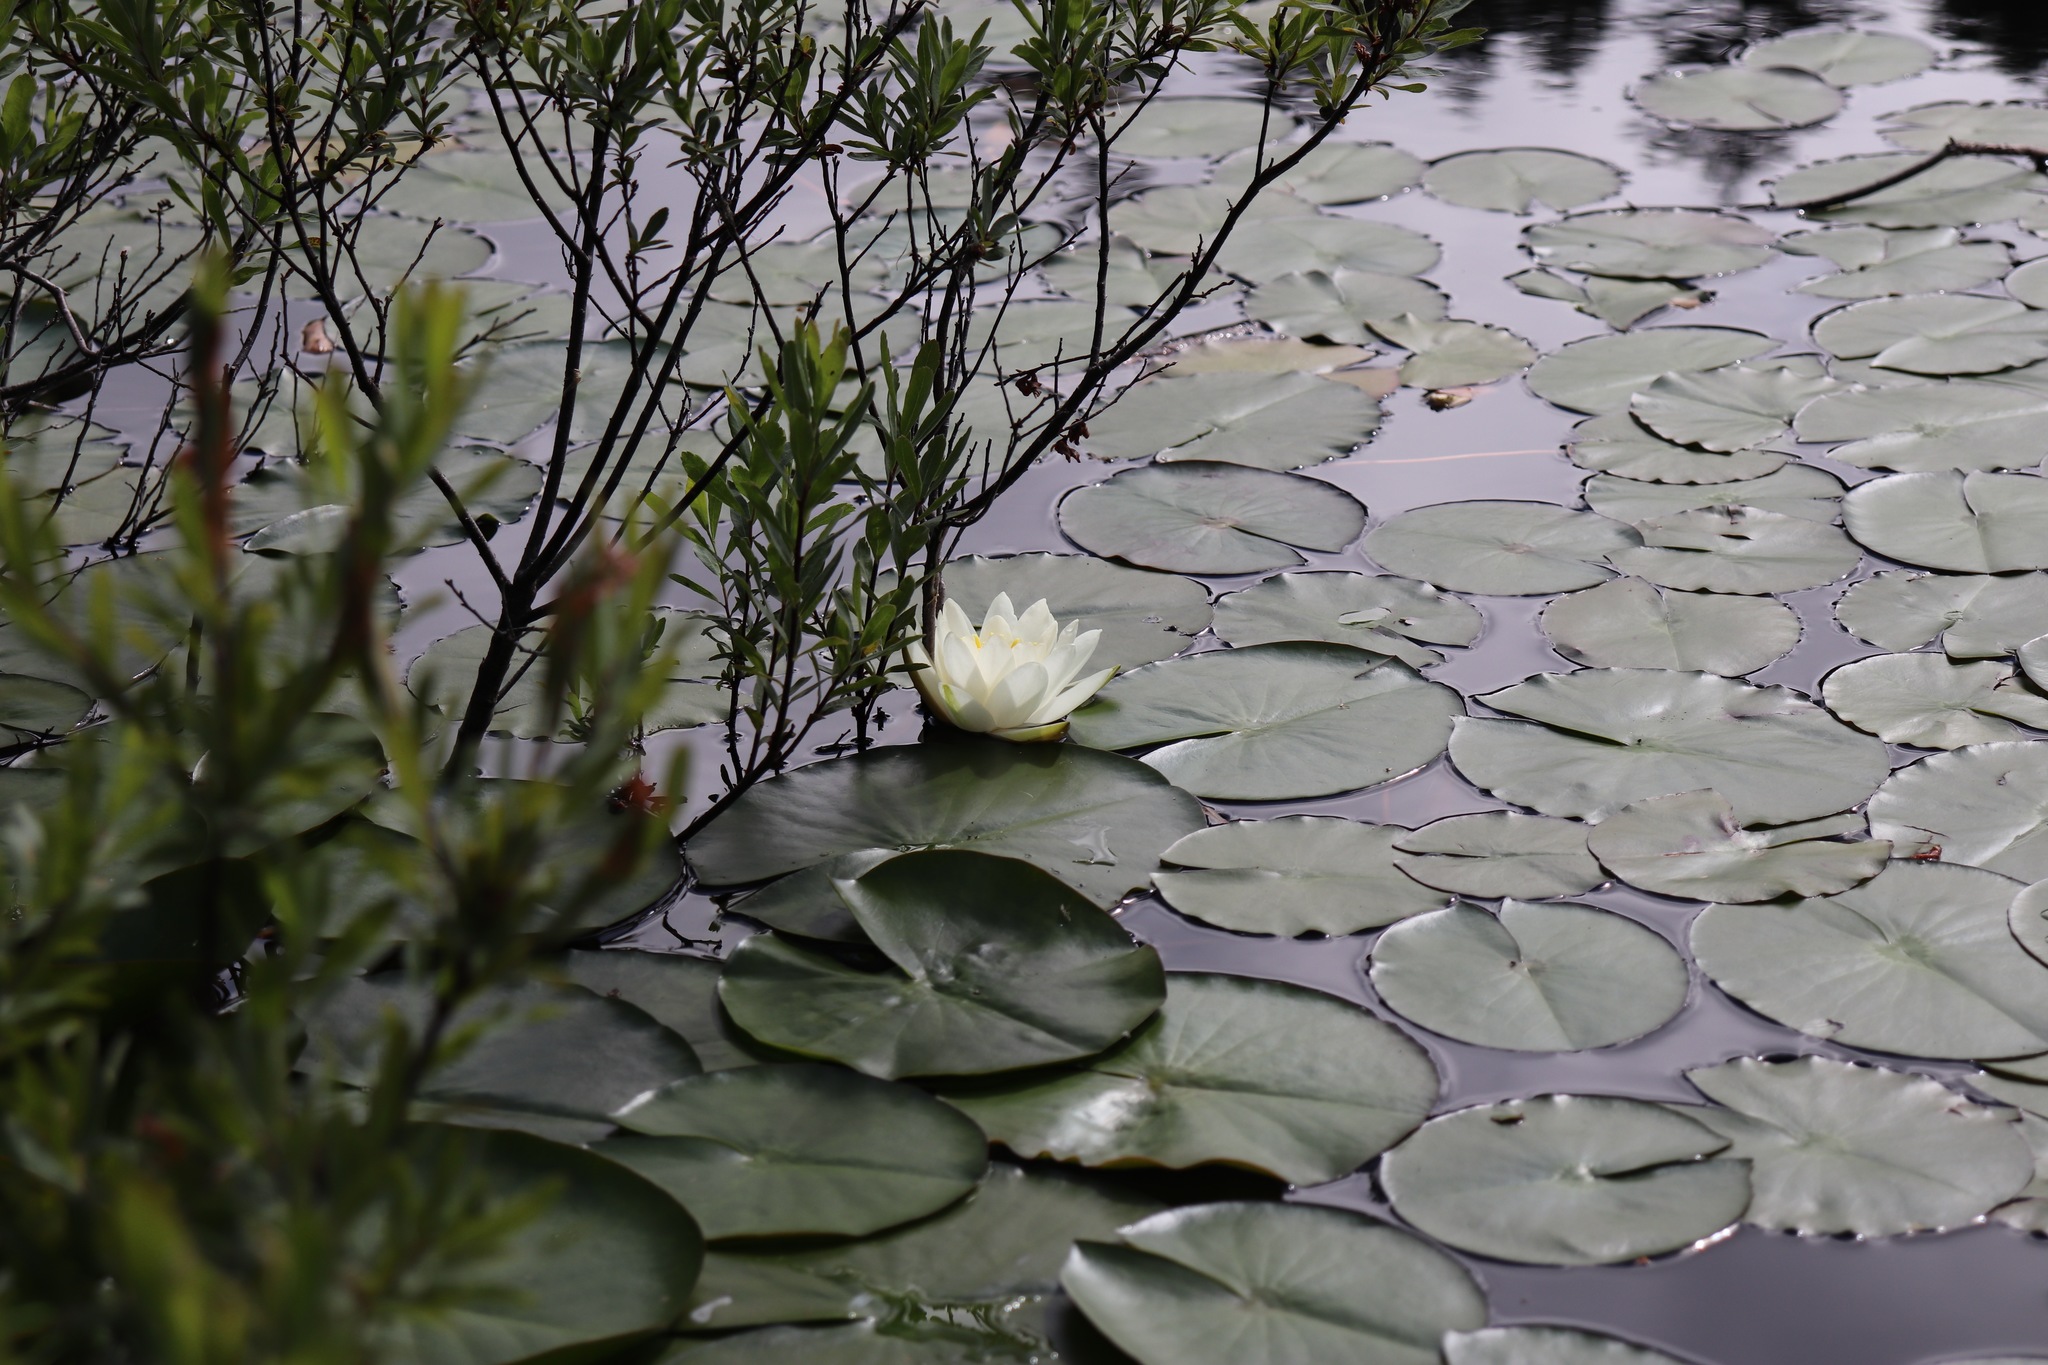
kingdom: Plantae
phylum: Tracheophyta
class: Magnoliopsida
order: Nymphaeales
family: Nymphaeaceae
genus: Nymphaea
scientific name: Nymphaea odorata
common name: Fragrant water-lily
